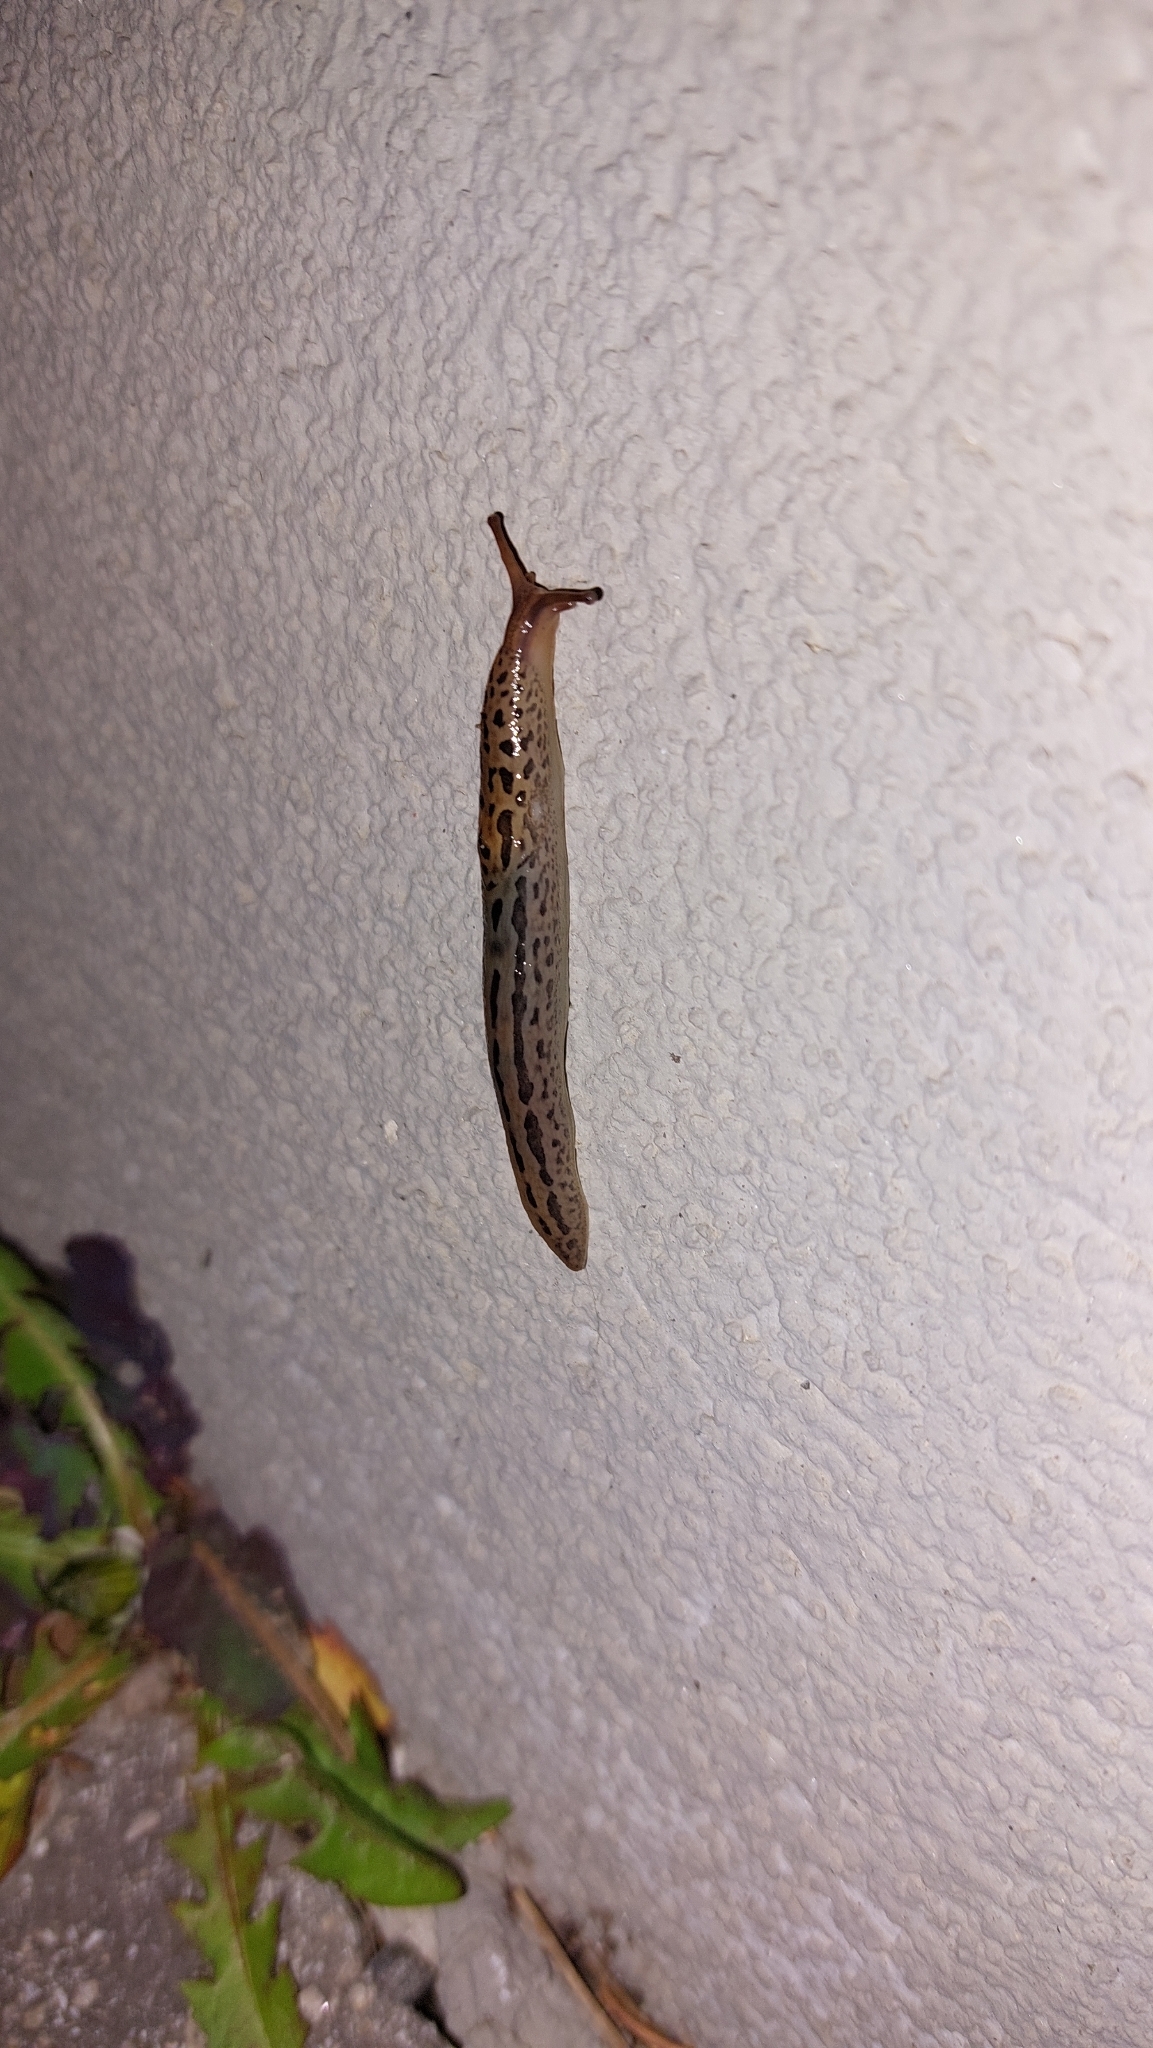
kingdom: Animalia
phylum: Mollusca
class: Gastropoda
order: Stylommatophora
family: Limacidae
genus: Limax
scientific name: Limax maximus
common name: Great grey slug
